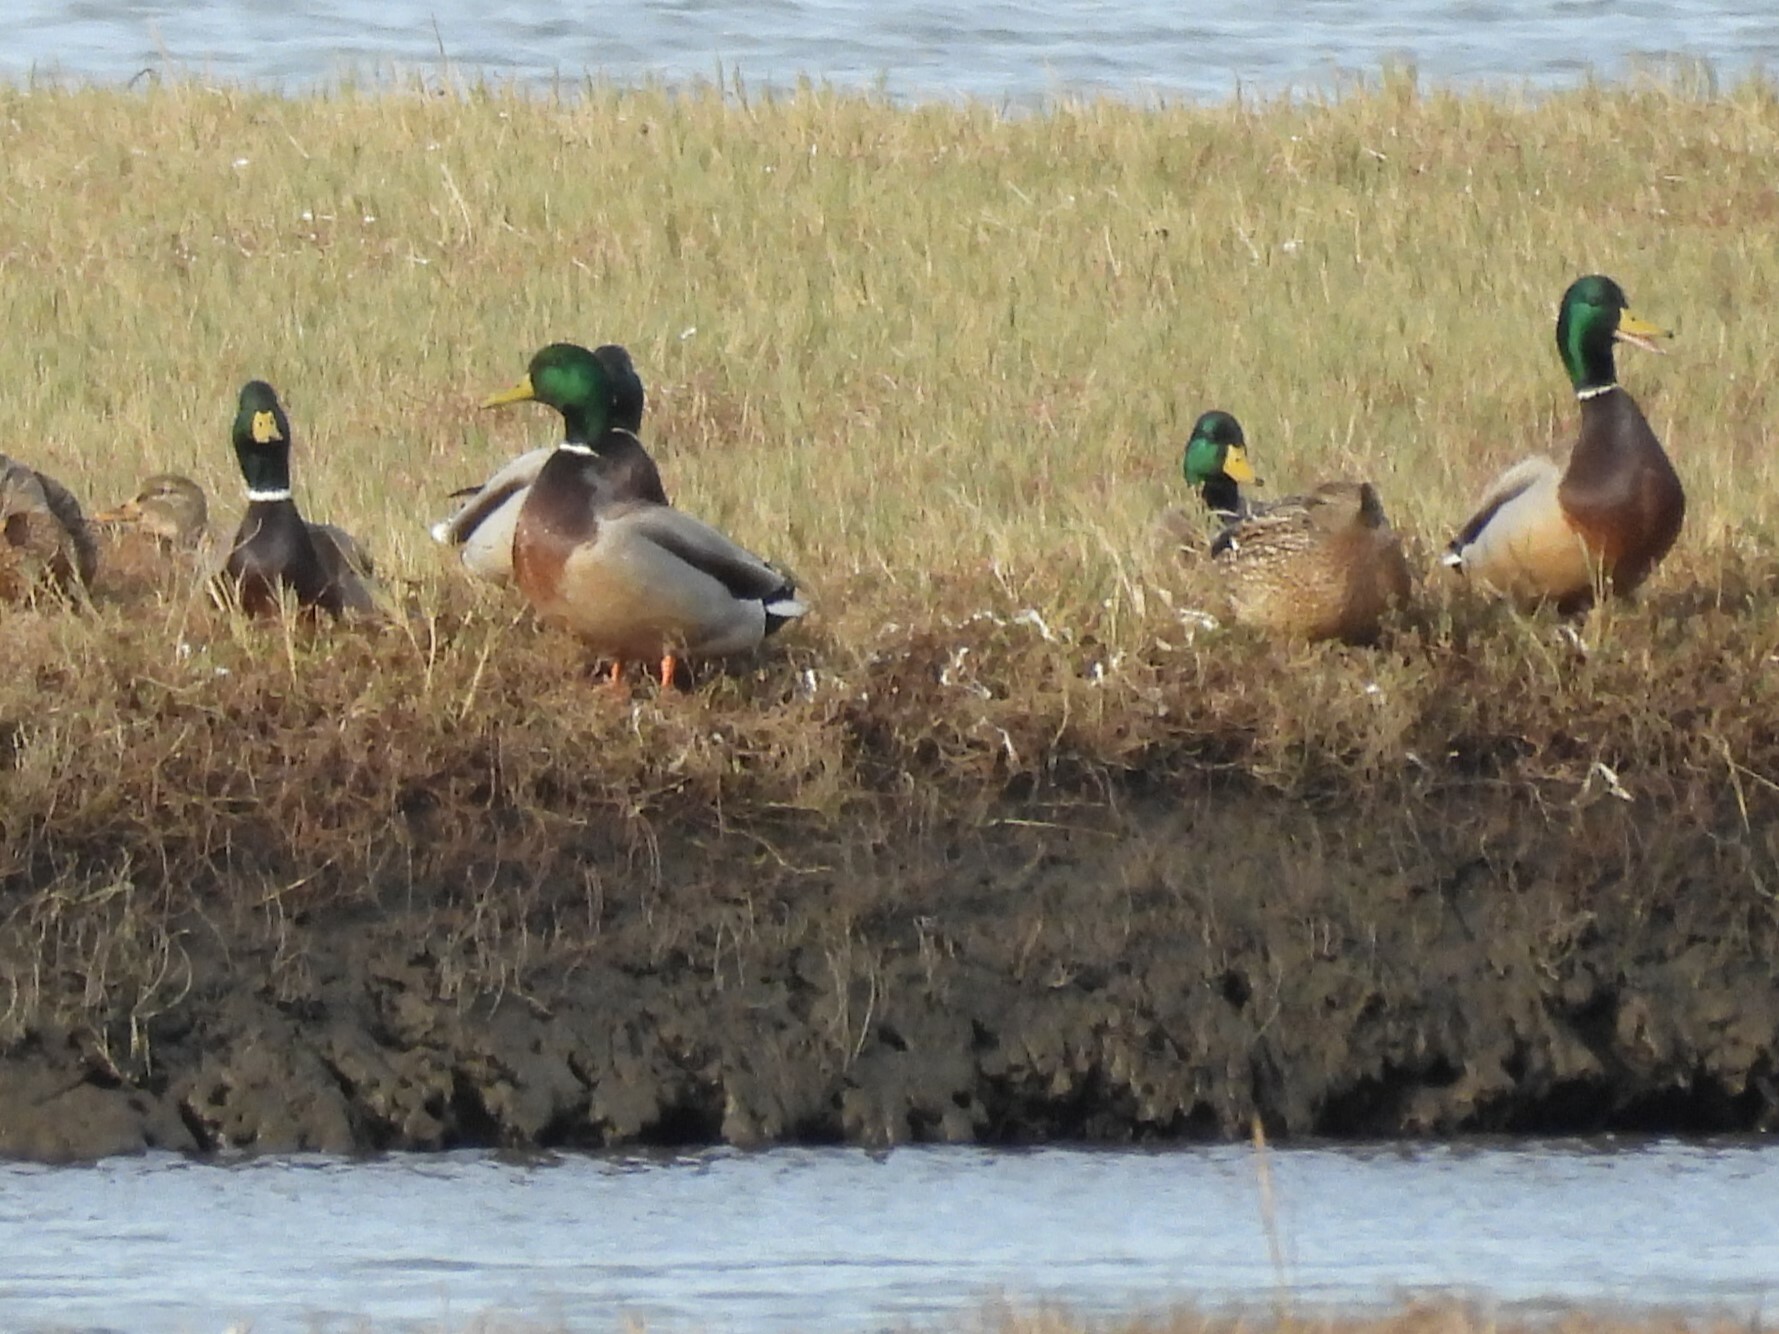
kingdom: Animalia
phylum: Chordata
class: Aves
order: Anseriformes
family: Anatidae
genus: Anas
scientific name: Anas platyrhynchos
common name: Mallard
